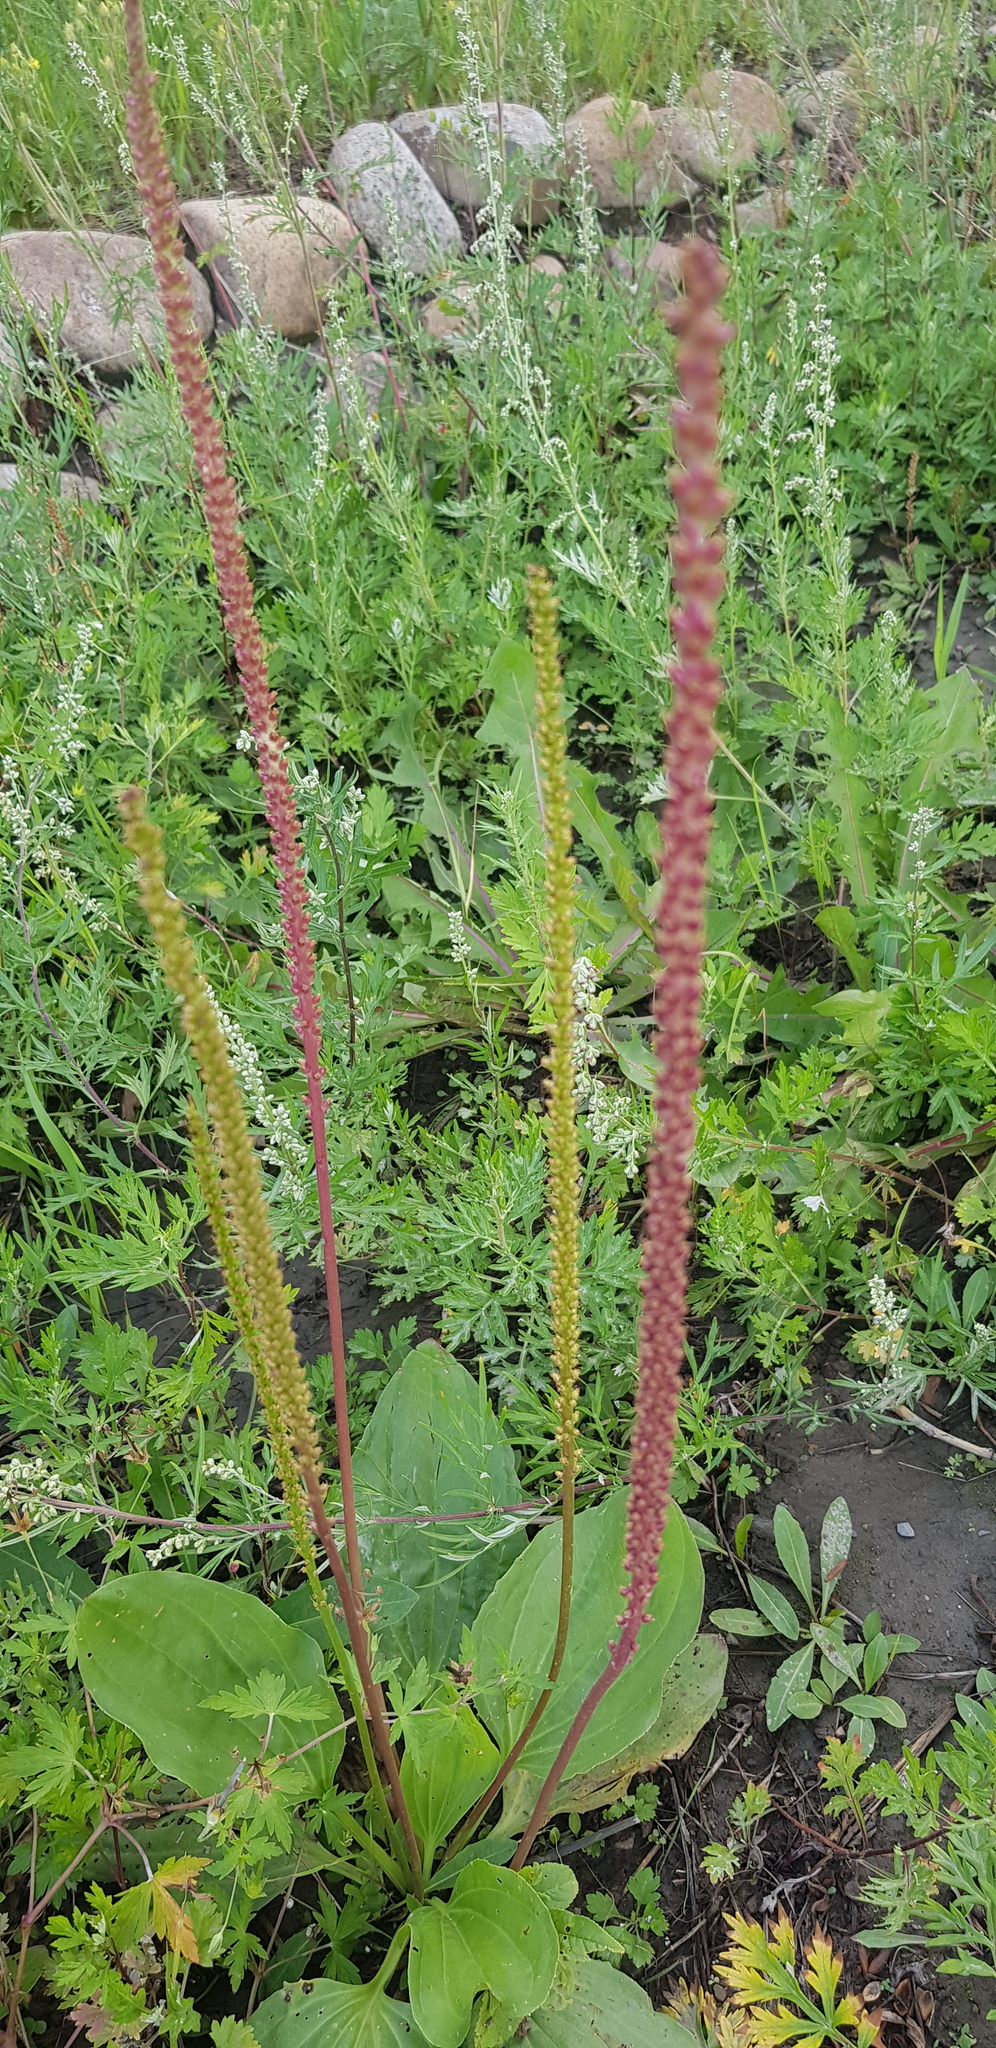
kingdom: Plantae
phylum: Tracheophyta
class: Magnoliopsida
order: Lamiales
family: Plantaginaceae
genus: Plantago
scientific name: Plantago major
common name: Common plantain
